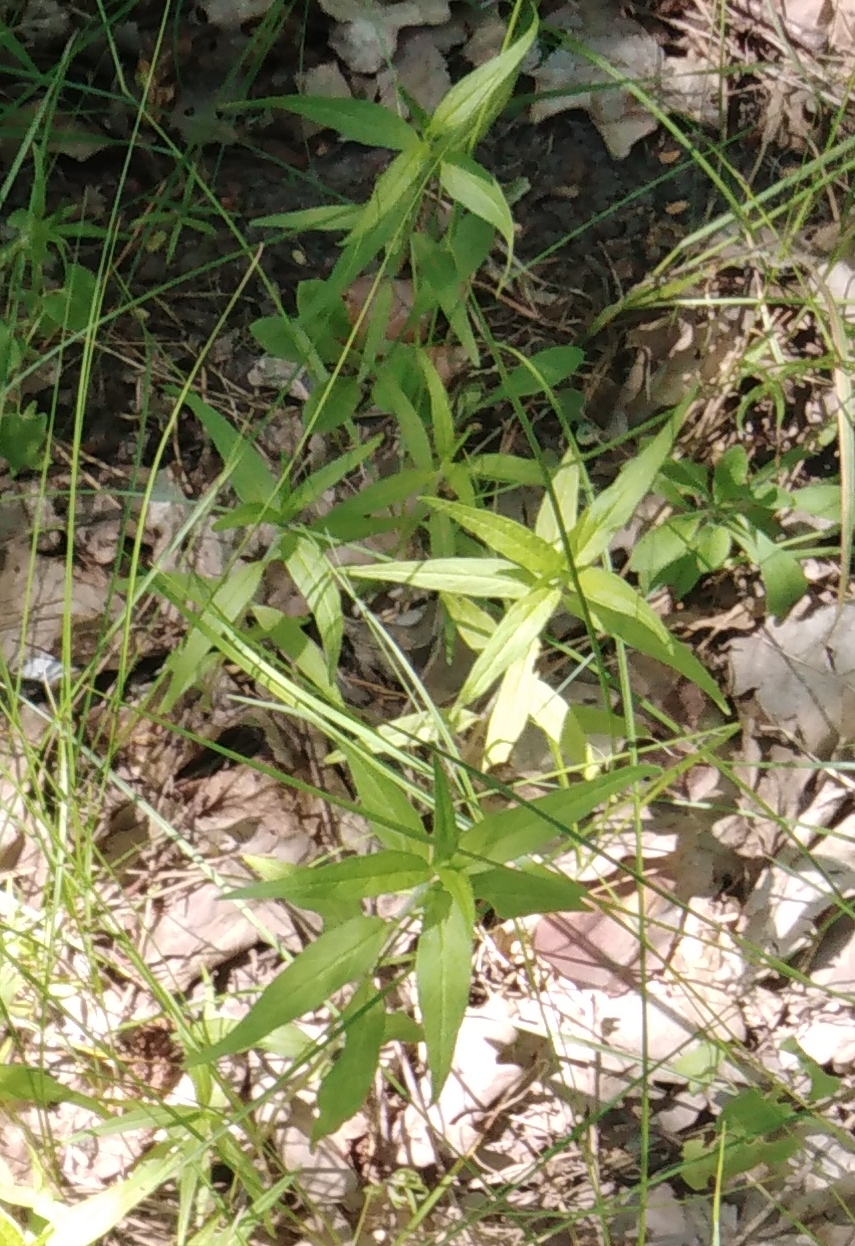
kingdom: Plantae
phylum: Tracheophyta
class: Magnoliopsida
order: Lamiales
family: Orobanchaceae
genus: Melampyrum
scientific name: Melampyrum nemorosum
